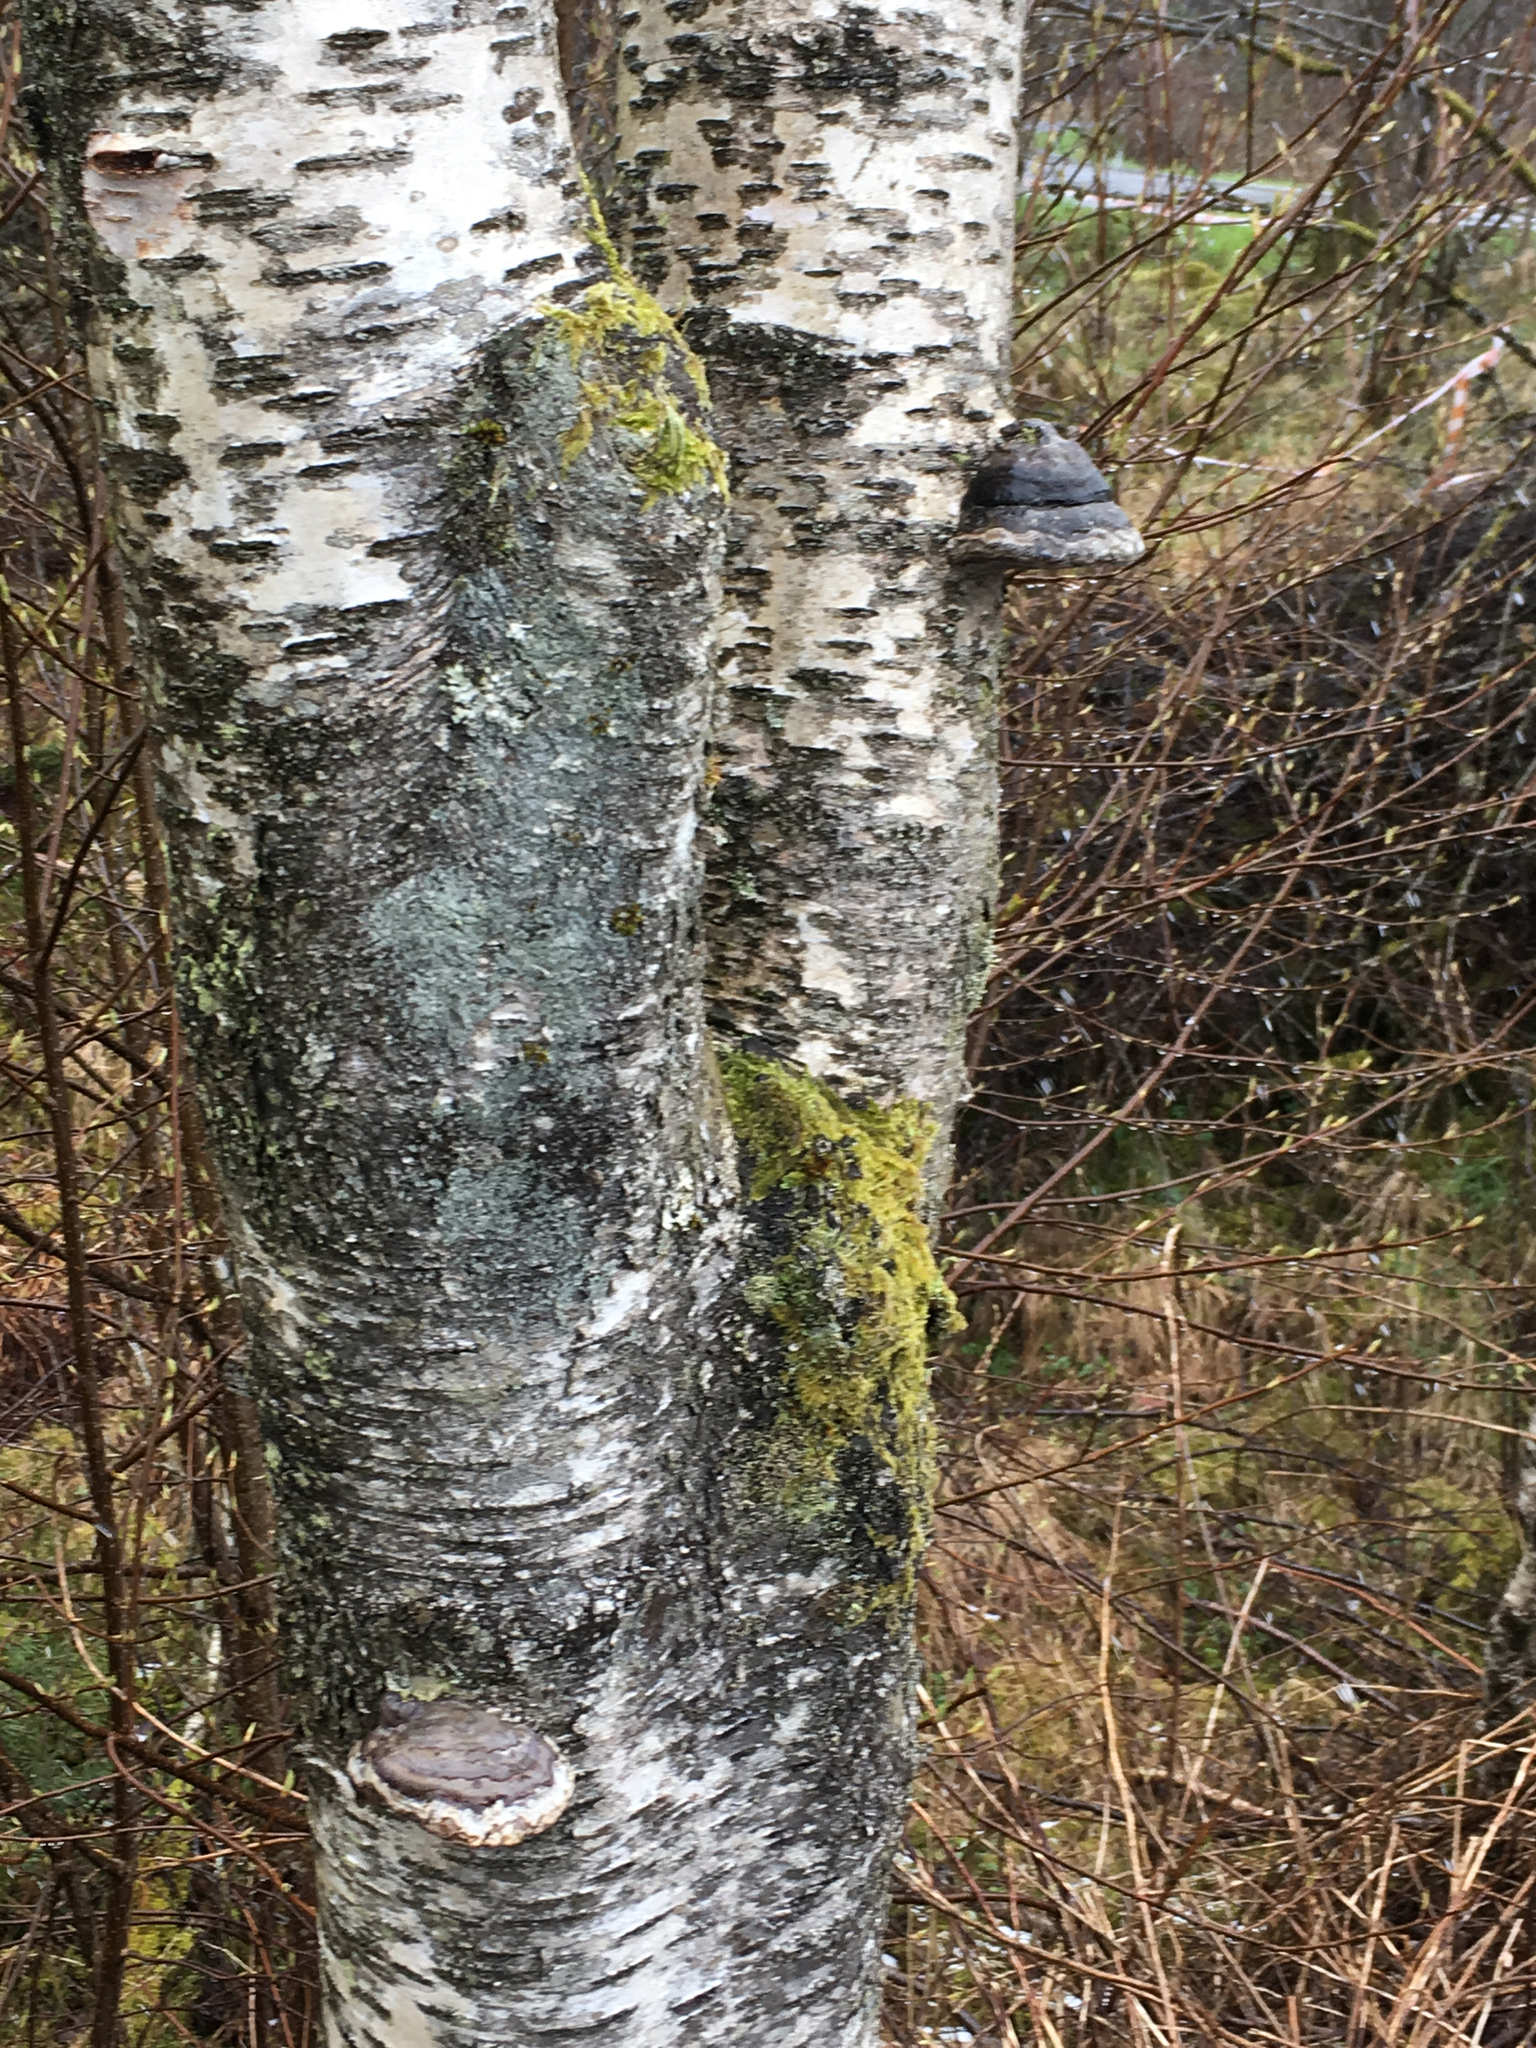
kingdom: Fungi
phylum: Basidiomycota
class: Agaricomycetes
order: Polyporales
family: Polyporaceae
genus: Fomes
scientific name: Fomes fomentarius
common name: Hoof fungus
